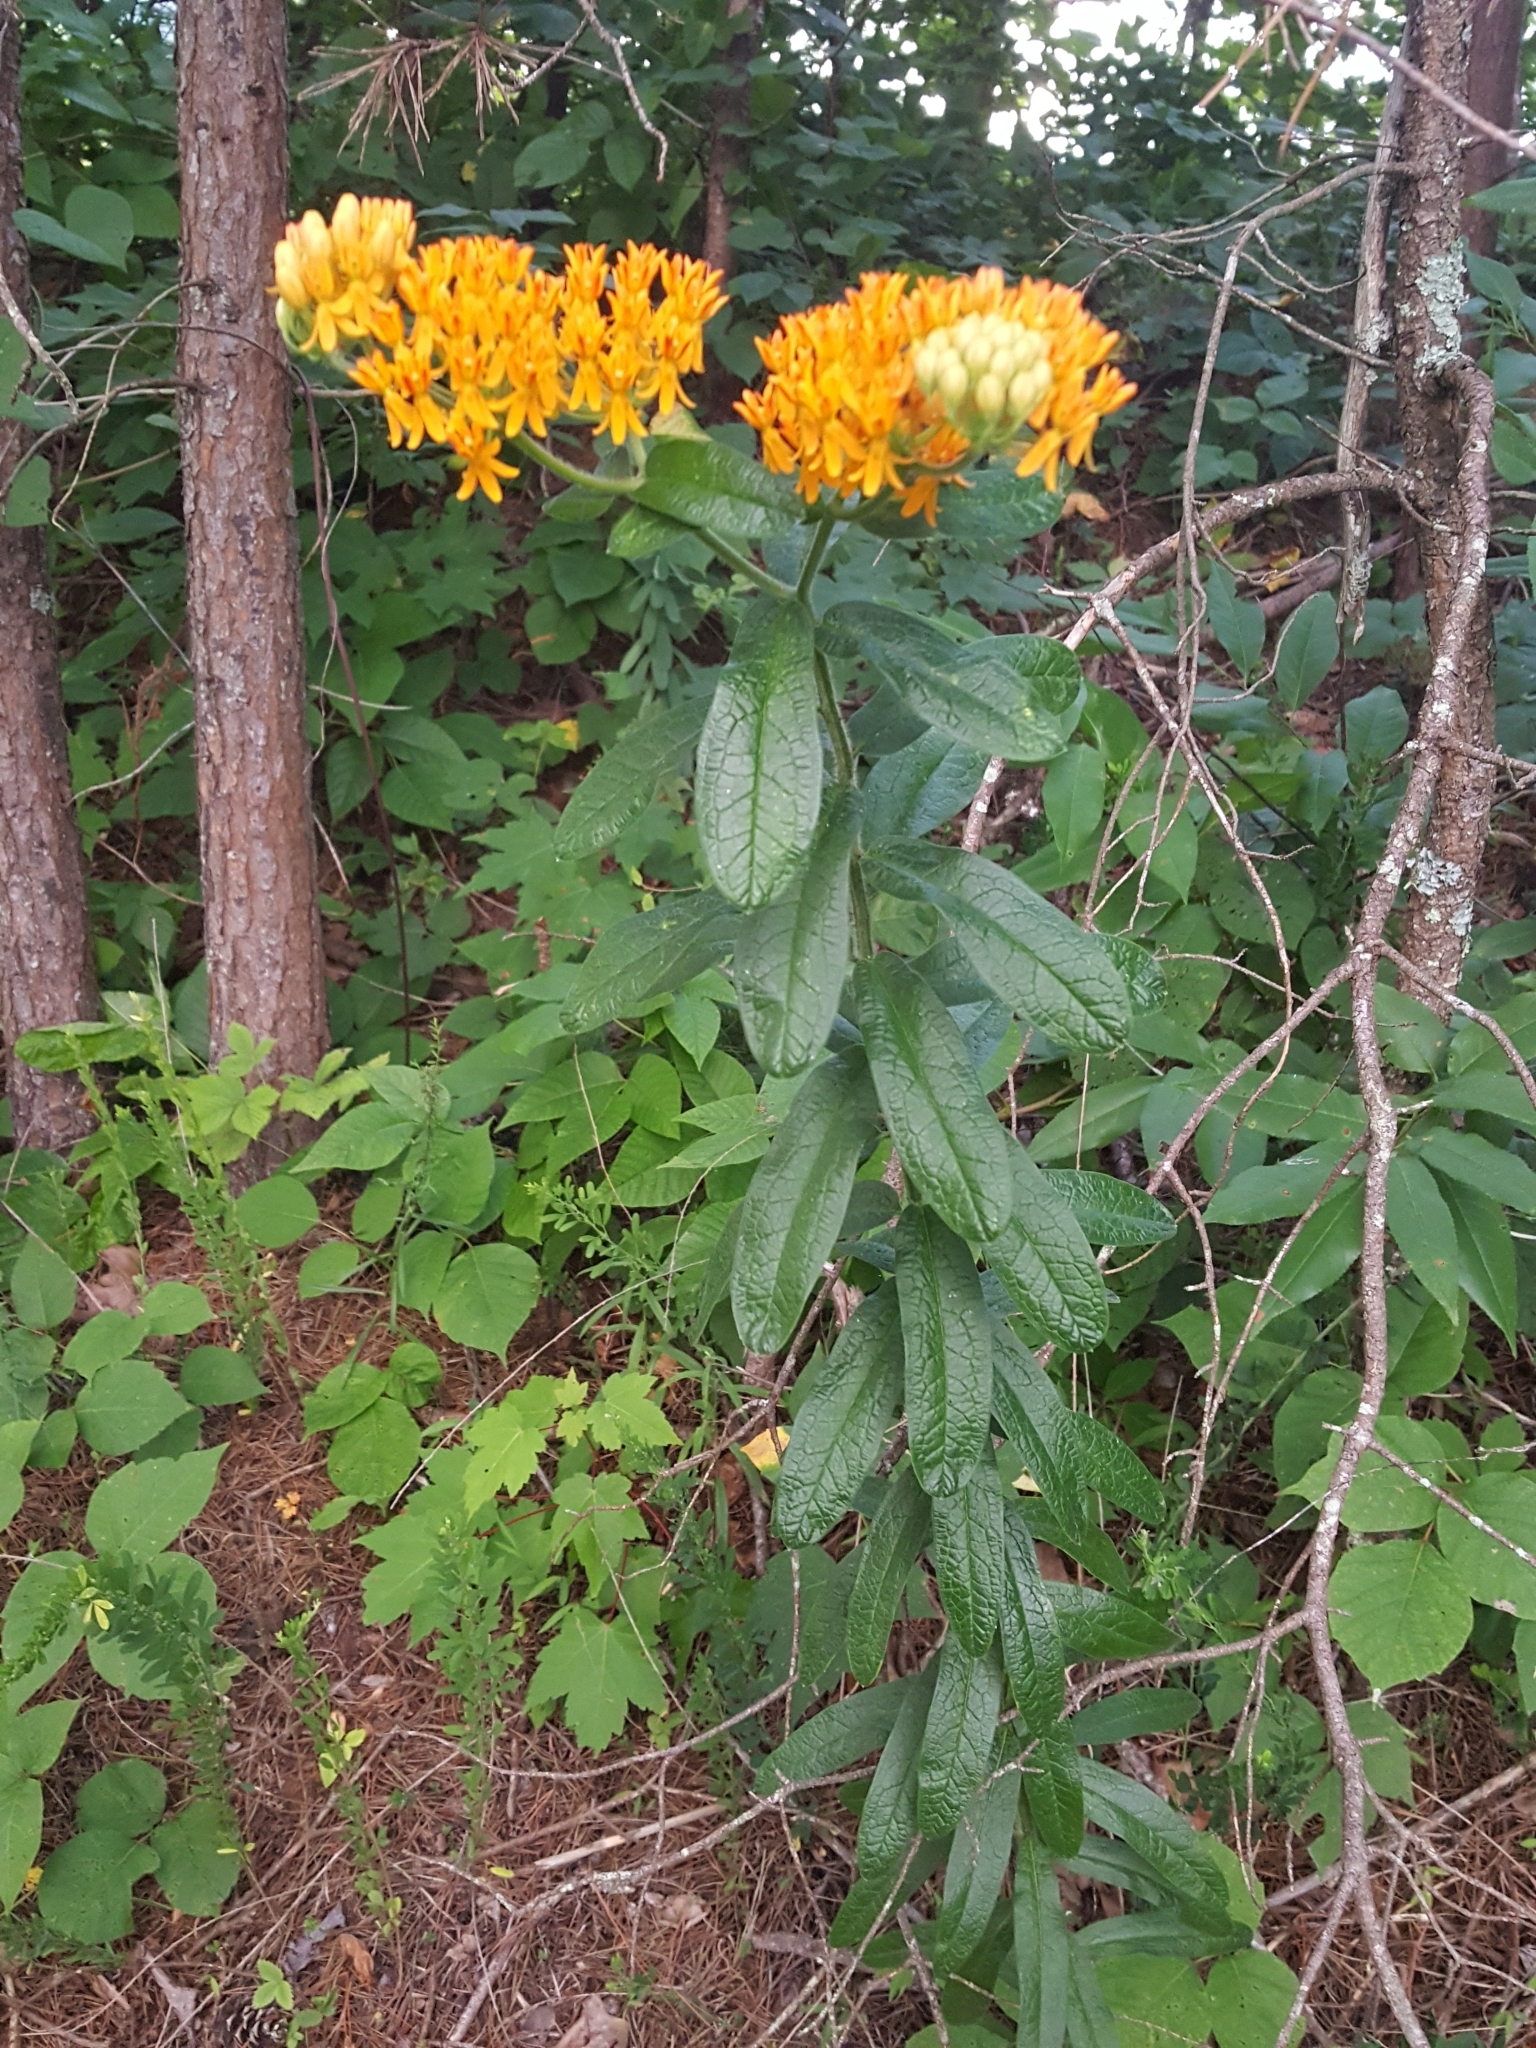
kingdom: Plantae
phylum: Tracheophyta
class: Magnoliopsida
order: Gentianales
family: Apocynaceae
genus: Asclepias
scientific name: Asclepias tuberosa
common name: Butterfly milkweed
